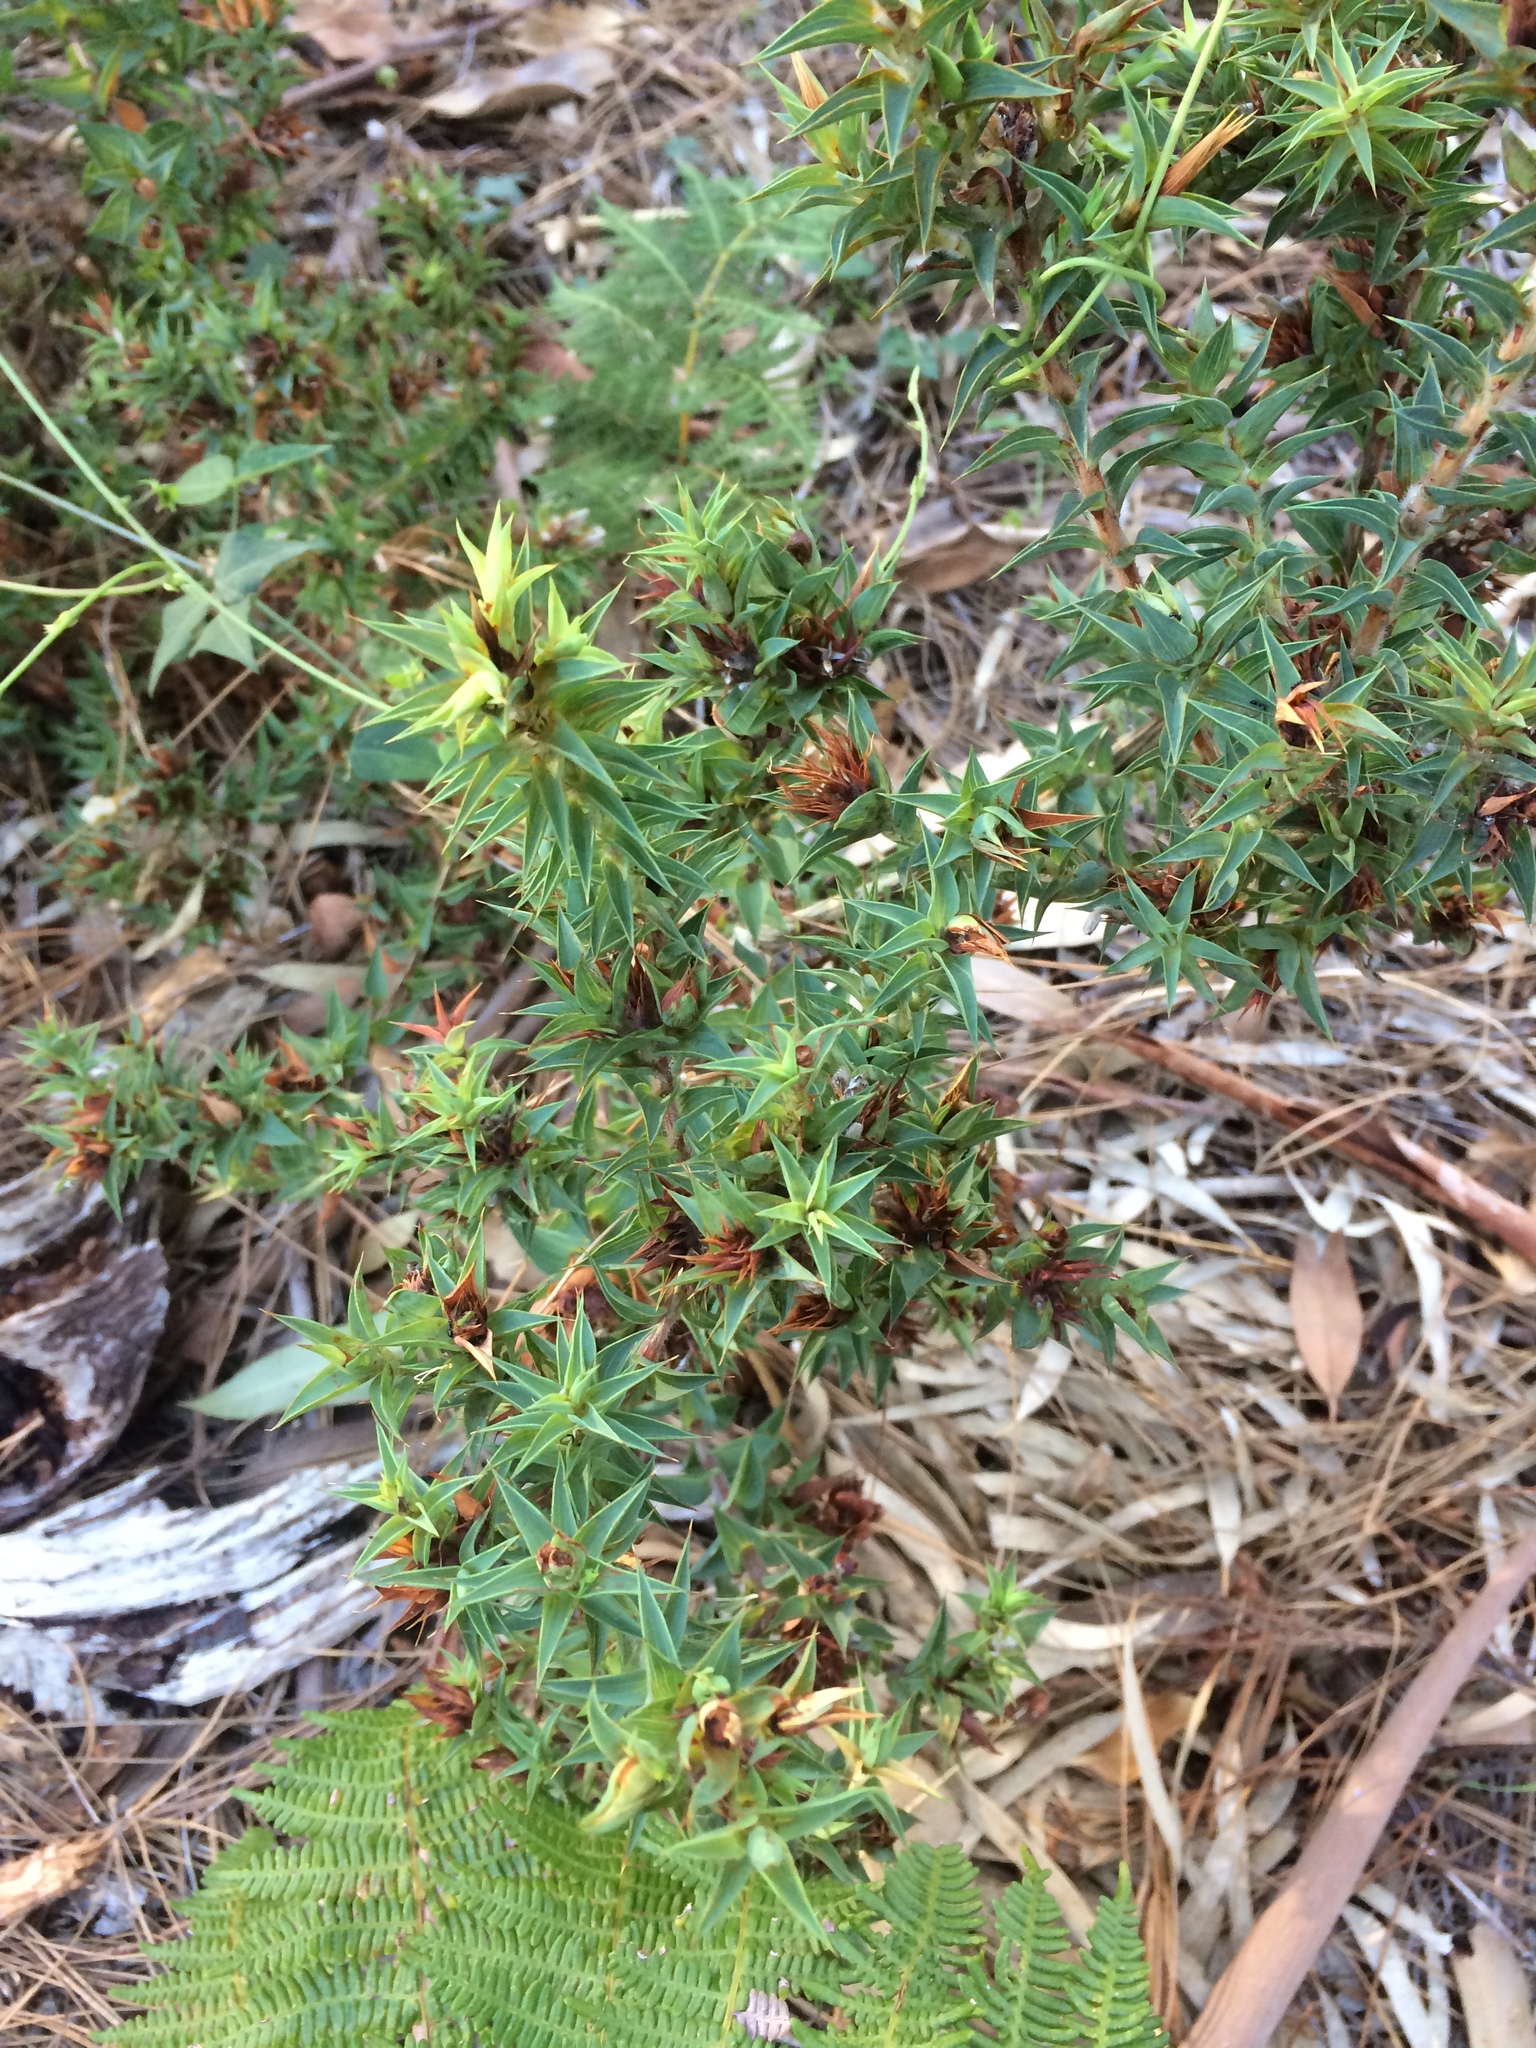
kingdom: Plantae
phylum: Tracheophyta
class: Magnoliopsida
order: Fabales
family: Fabaceae
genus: Aspalathus
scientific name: Aspalathus cordata
